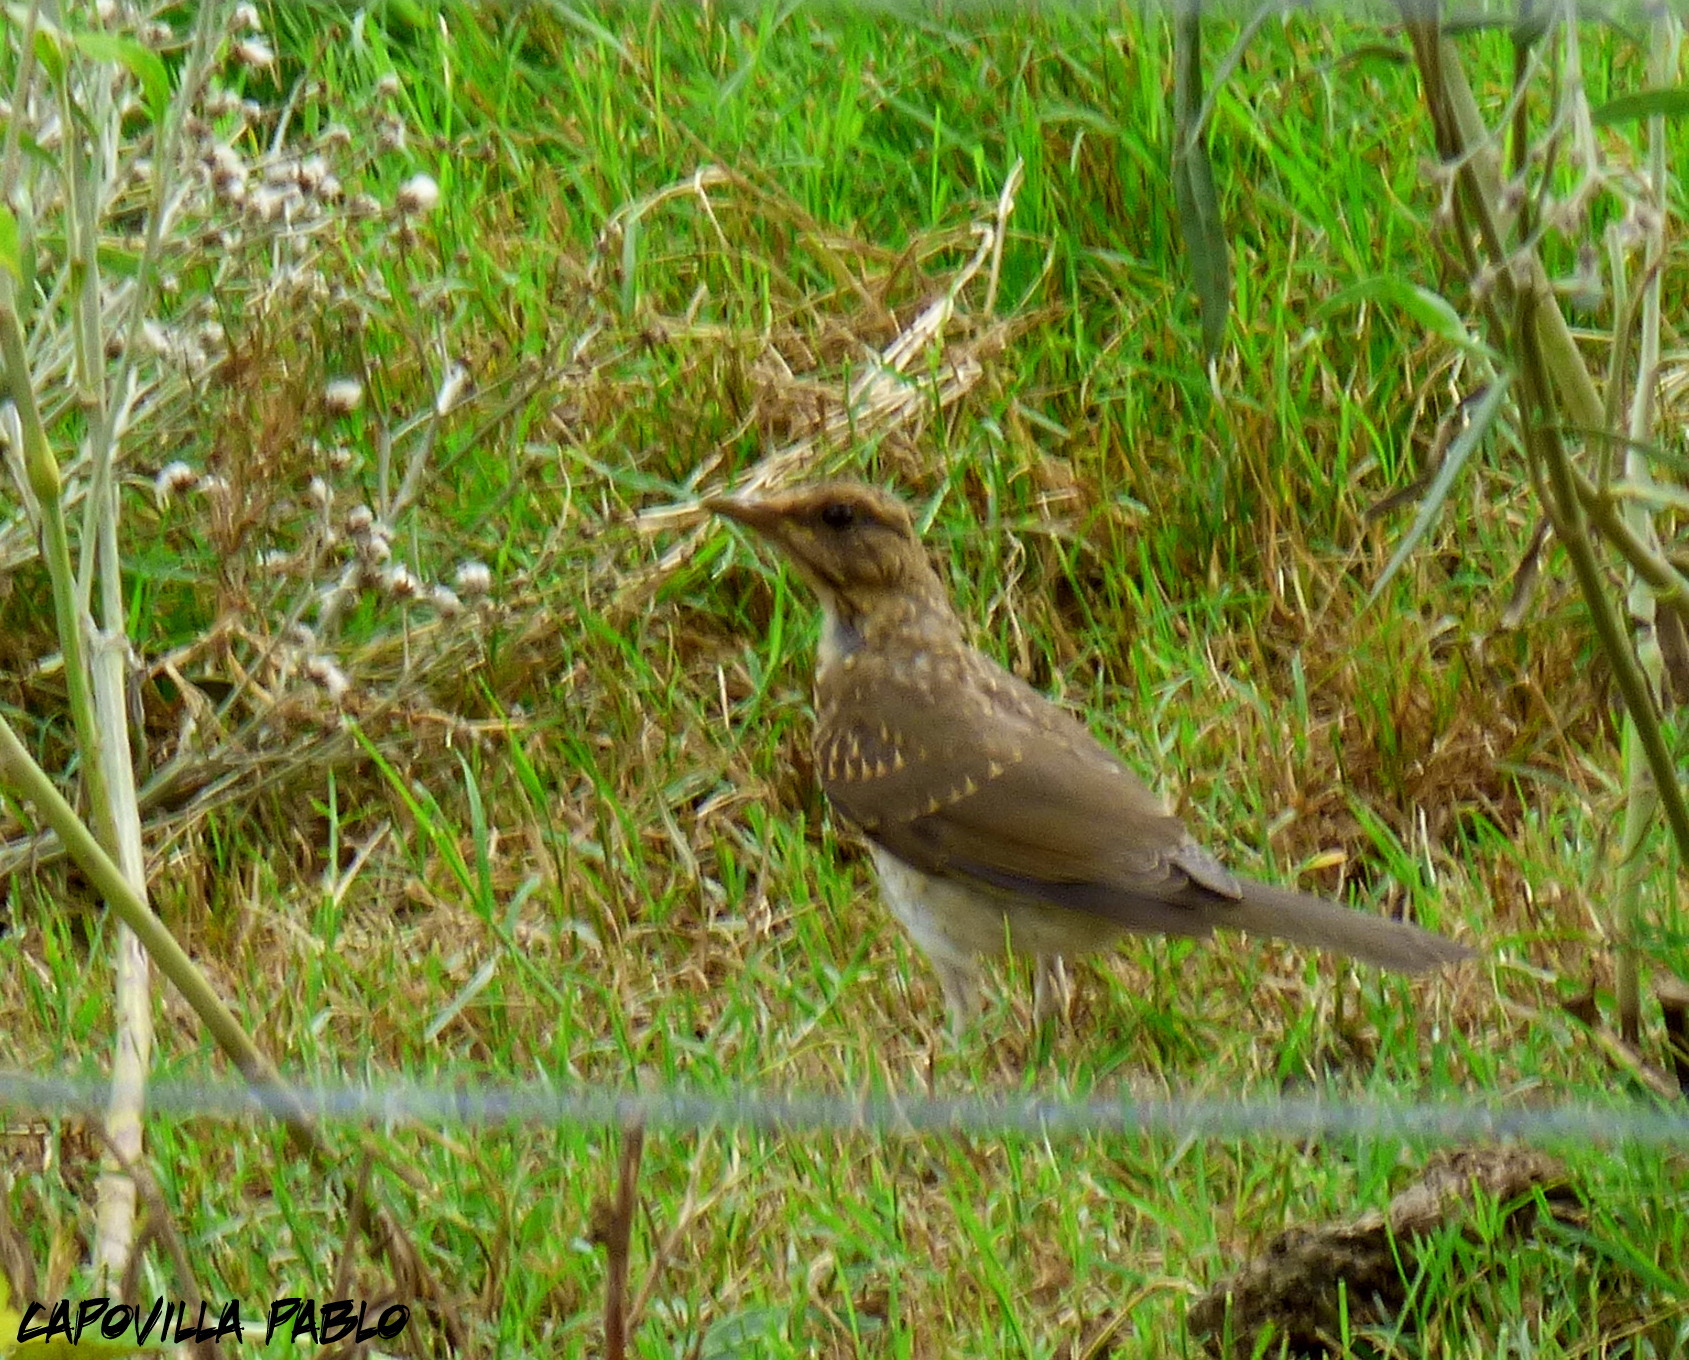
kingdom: Animalia
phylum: Chordata
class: Aves
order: Passeriformes
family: Turdidae
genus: Turdus
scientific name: Turdus amaurochalinus
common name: Creamy-bellied thrush
